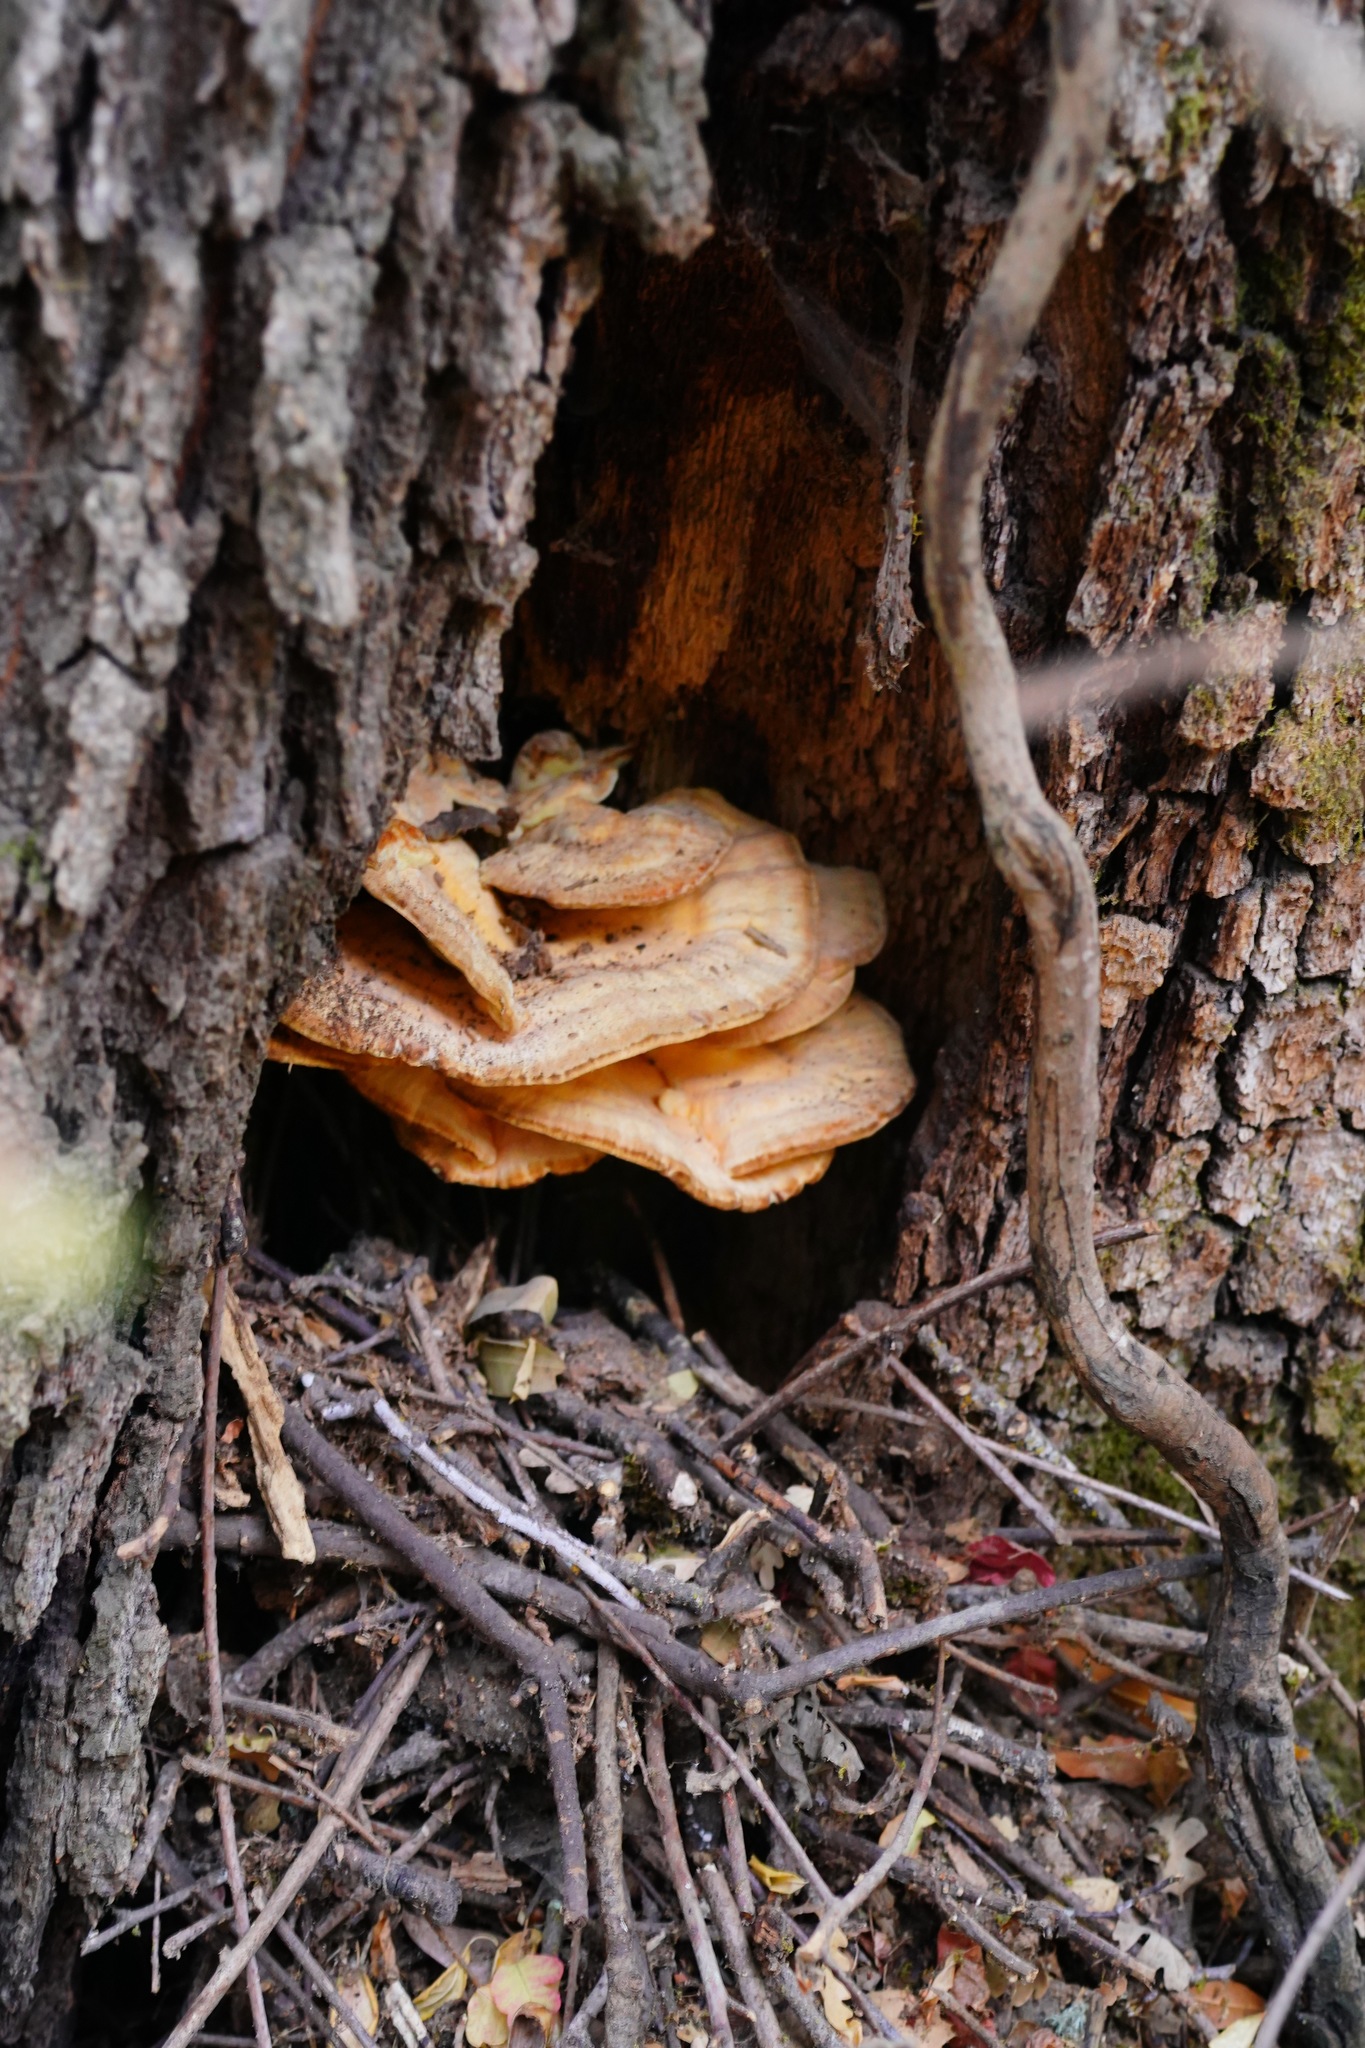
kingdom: Fungi
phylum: Basidiomycota
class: Agaricomycetes
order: Polyporales
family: Laetiporaceae
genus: Laetiporus
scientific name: Laetiporus gilbertsonii
